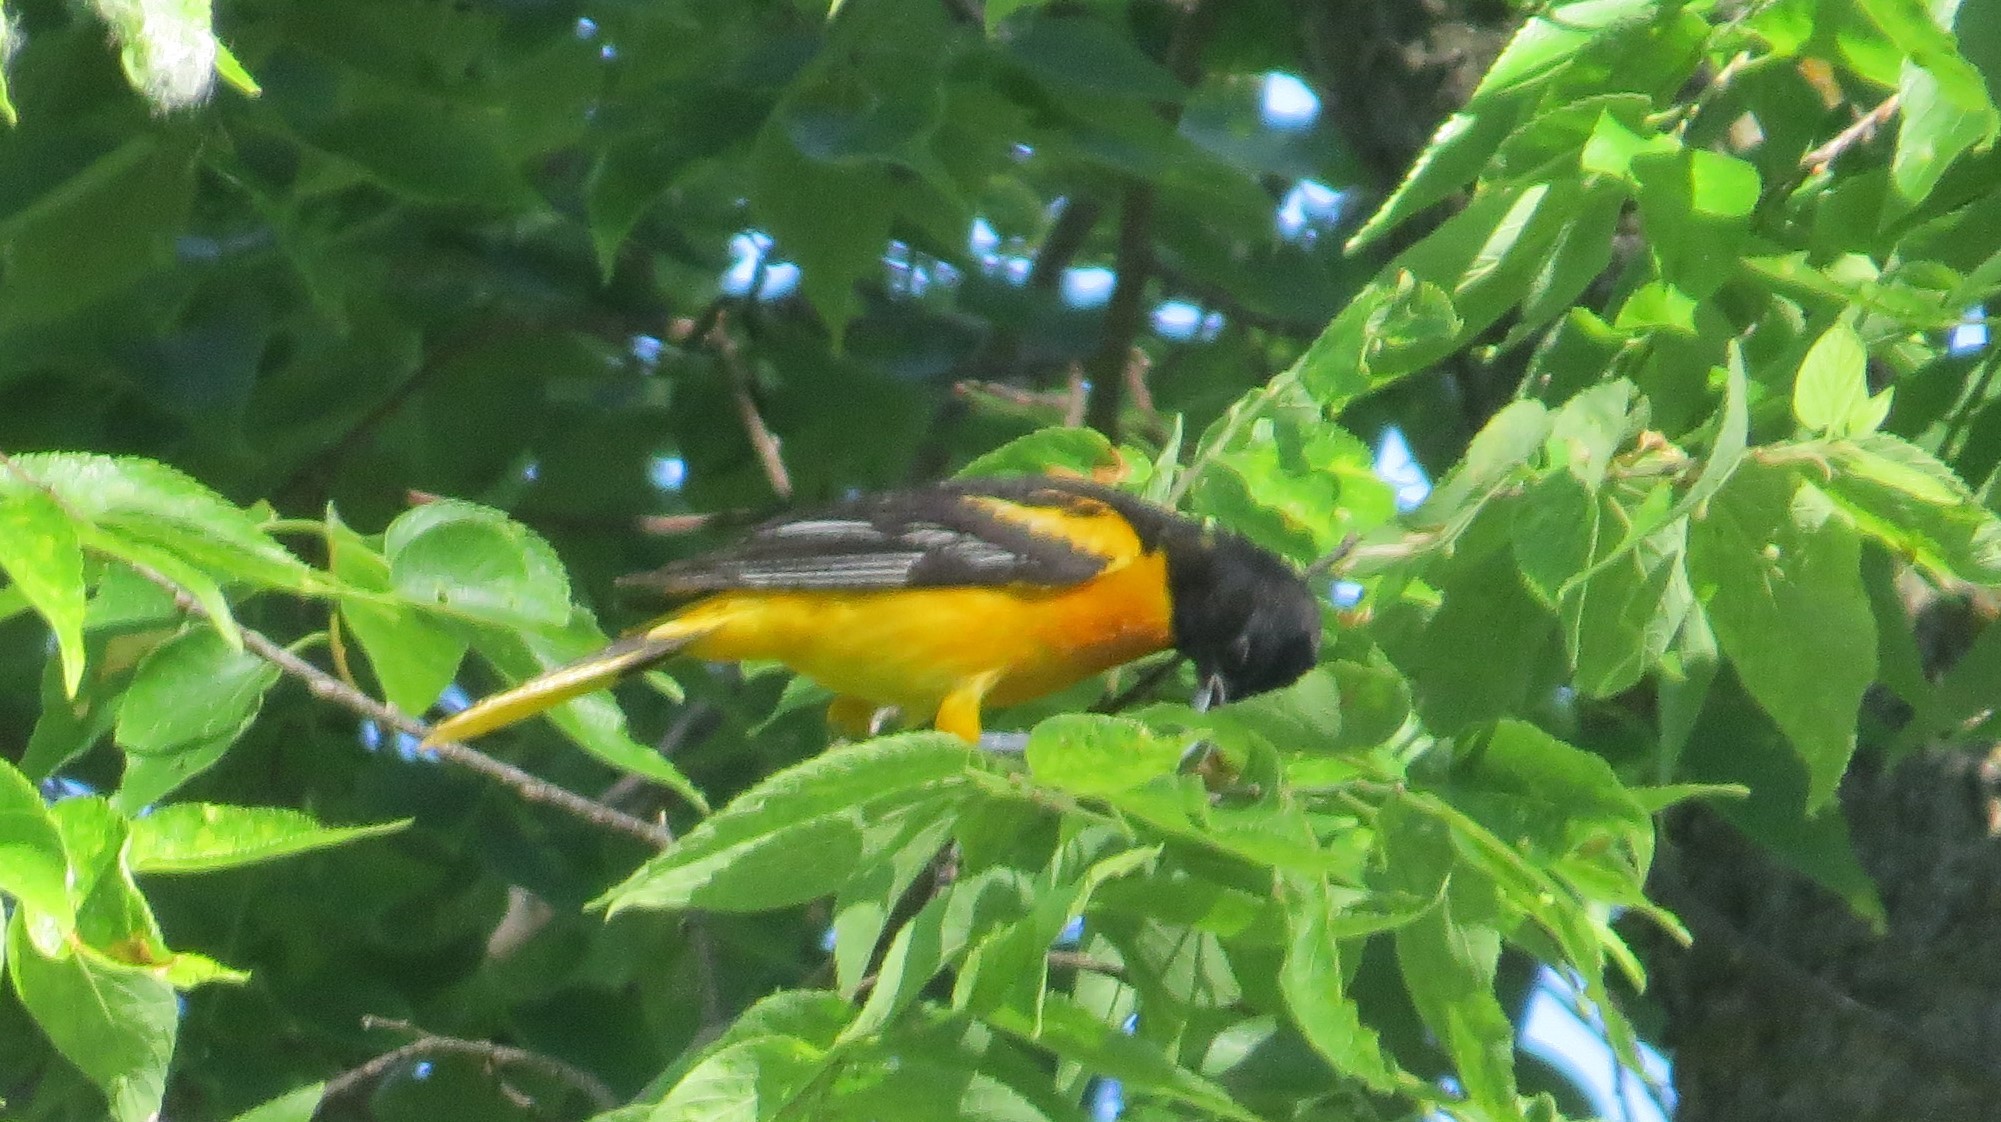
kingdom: Animalia
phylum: Chordata
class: Aves
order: Passeriformes
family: Icteridae
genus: Icterus
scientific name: Icterus galbula
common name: Baltimore oriole
